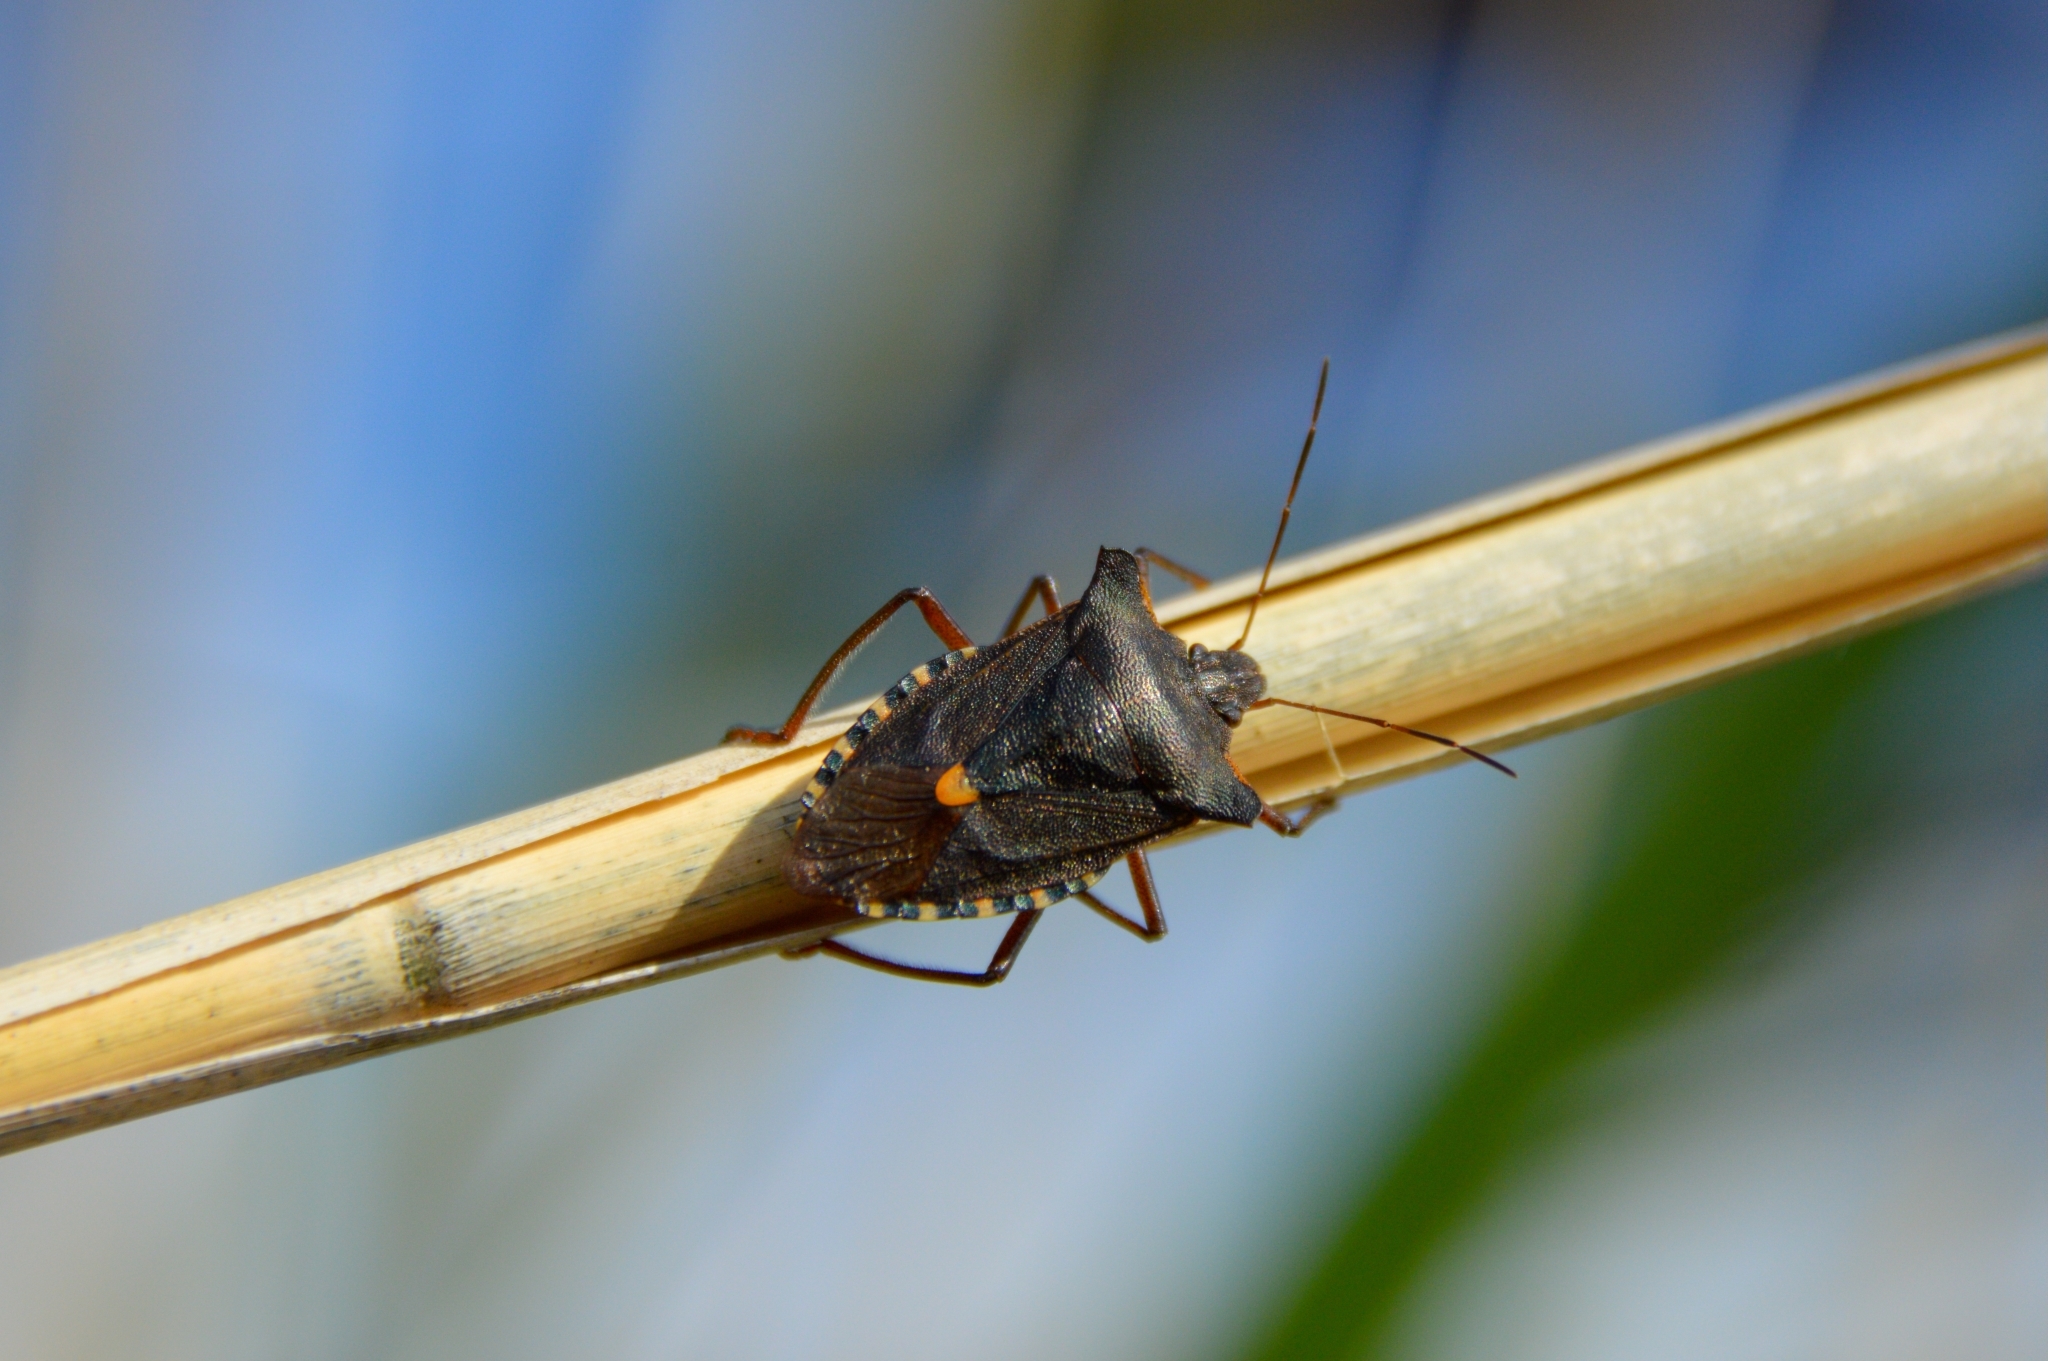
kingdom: Animalia
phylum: Arthropoda
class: Insecta
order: Hemiptera
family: Pentatomidae
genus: Pentatoma
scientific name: Pentatoma rufipes
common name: Forest bug
